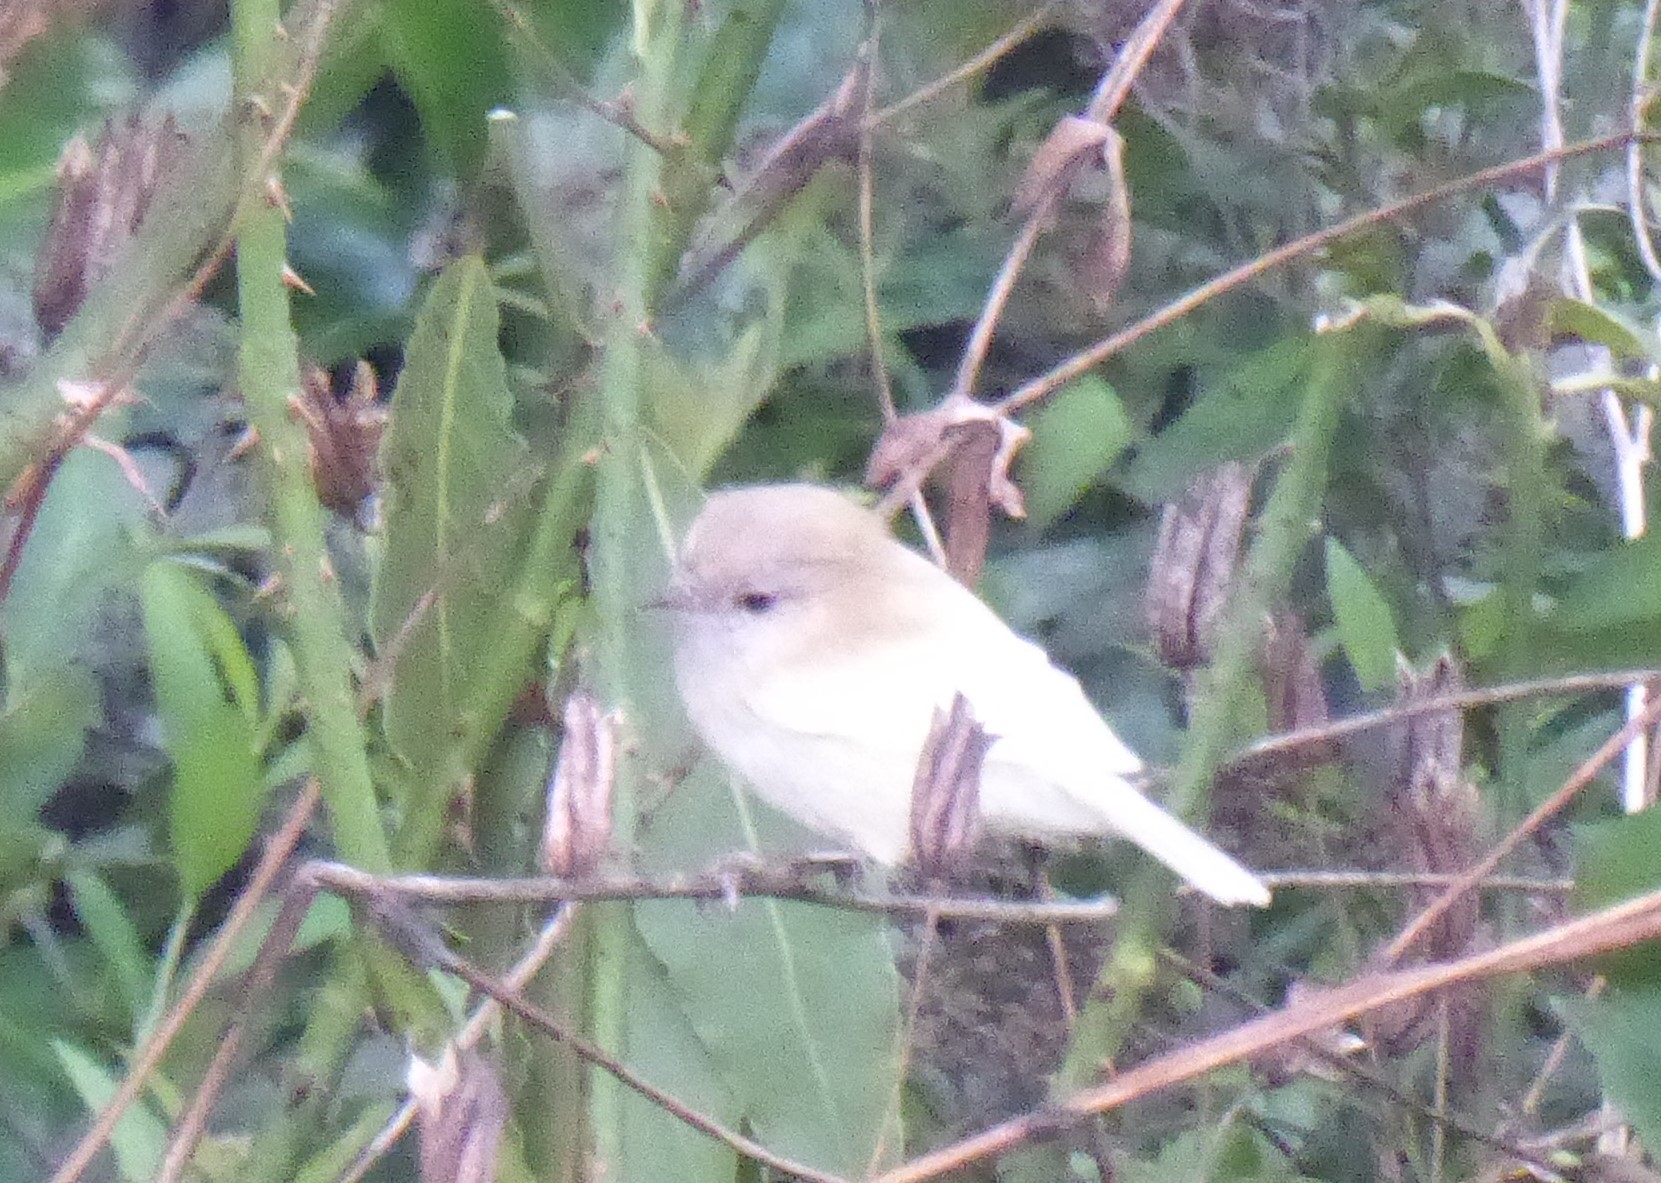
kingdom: Animalia
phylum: Chordata
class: Aves
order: Passeriformes
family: Acanthizidae
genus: Gerygone
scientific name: Gerygone igata
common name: Grey gerygone
